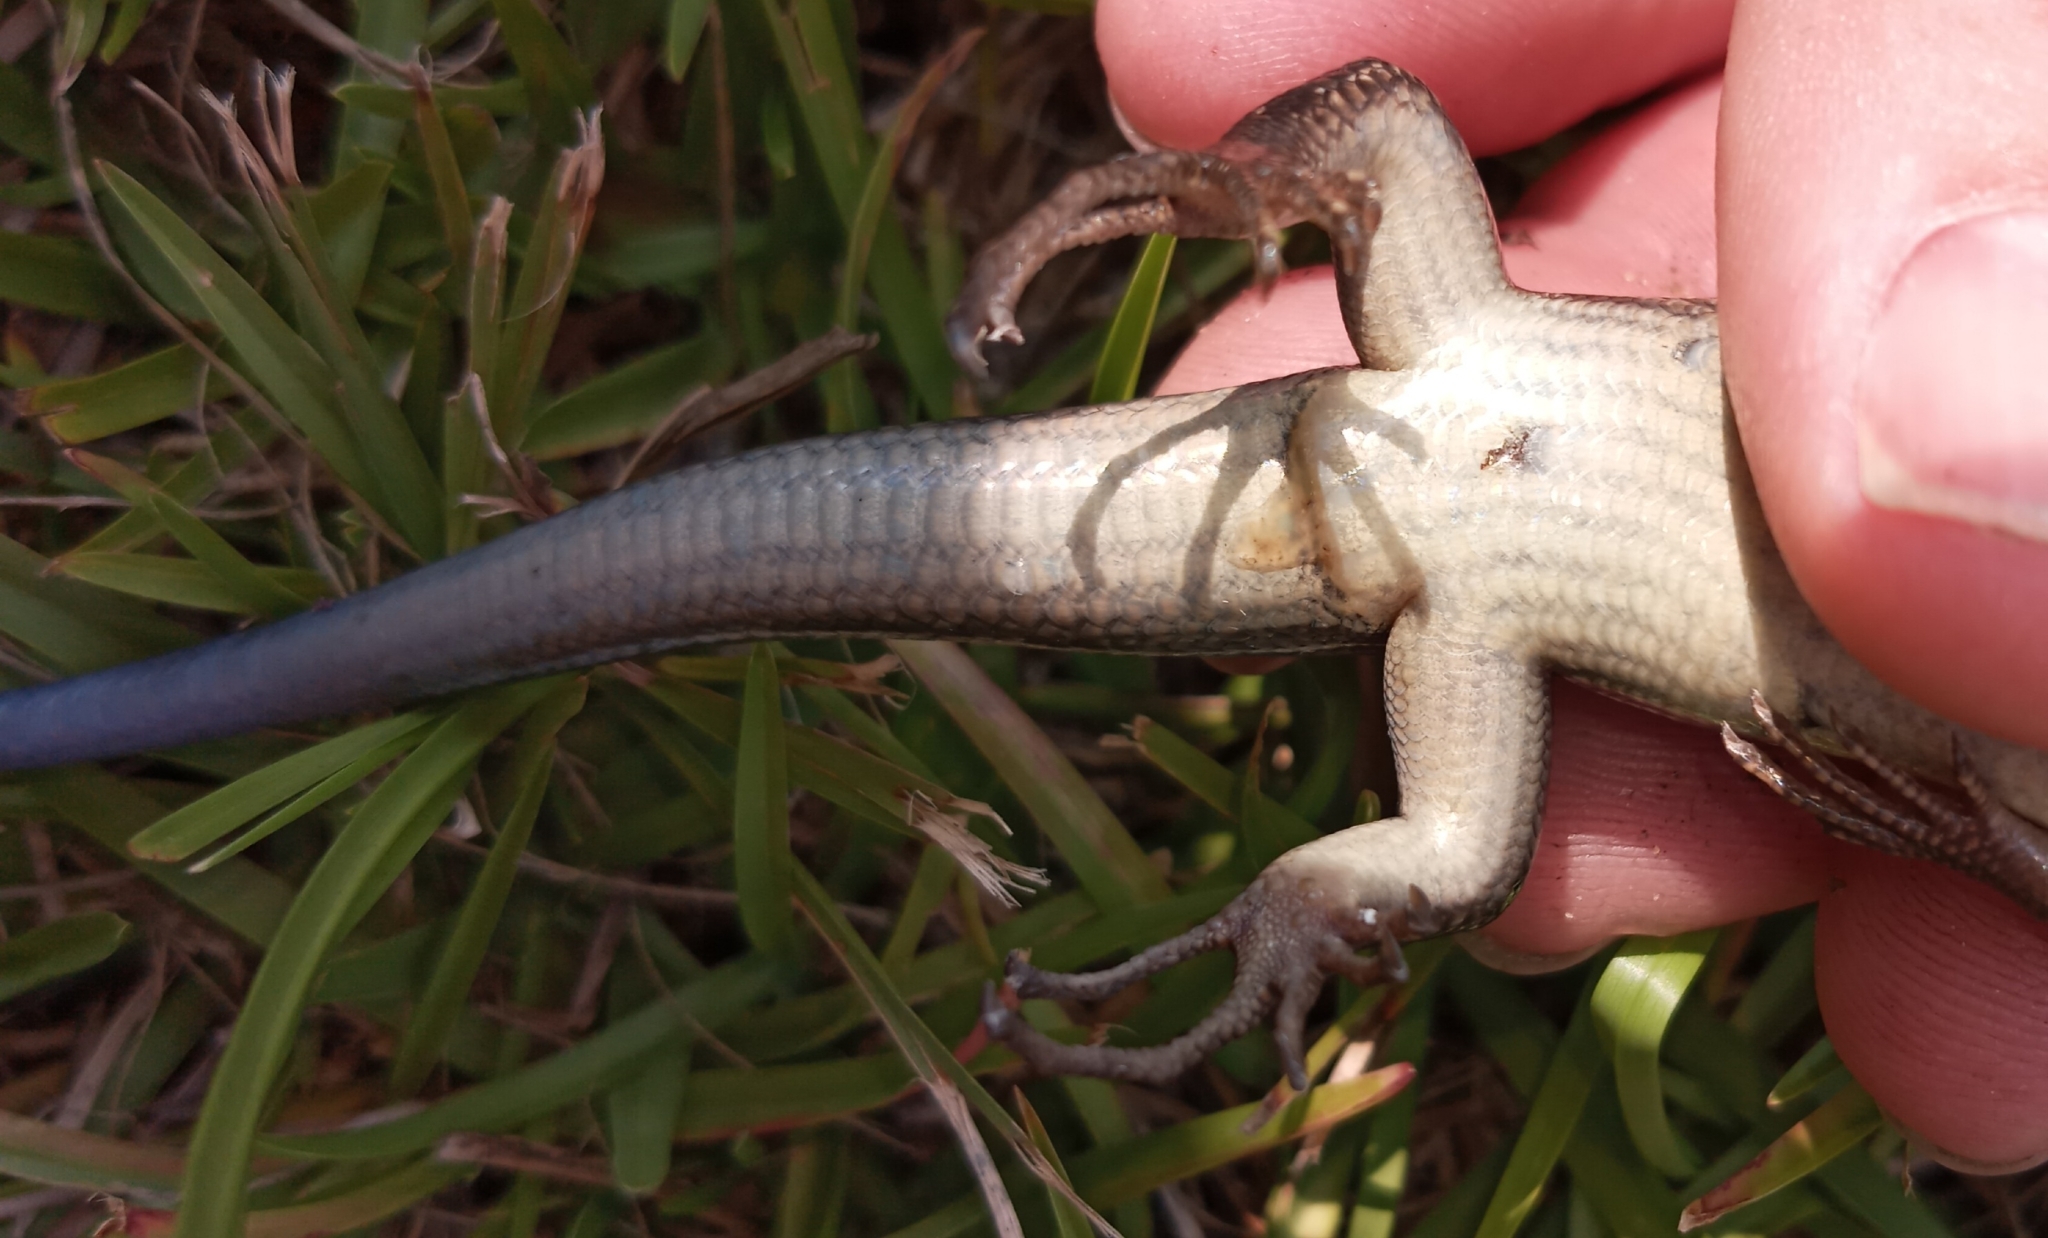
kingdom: Animalia
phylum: Chordata
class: Squamata
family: Scincidae
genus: Plestiodon
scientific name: Plestiodon laticeps
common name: Broadhead skink
